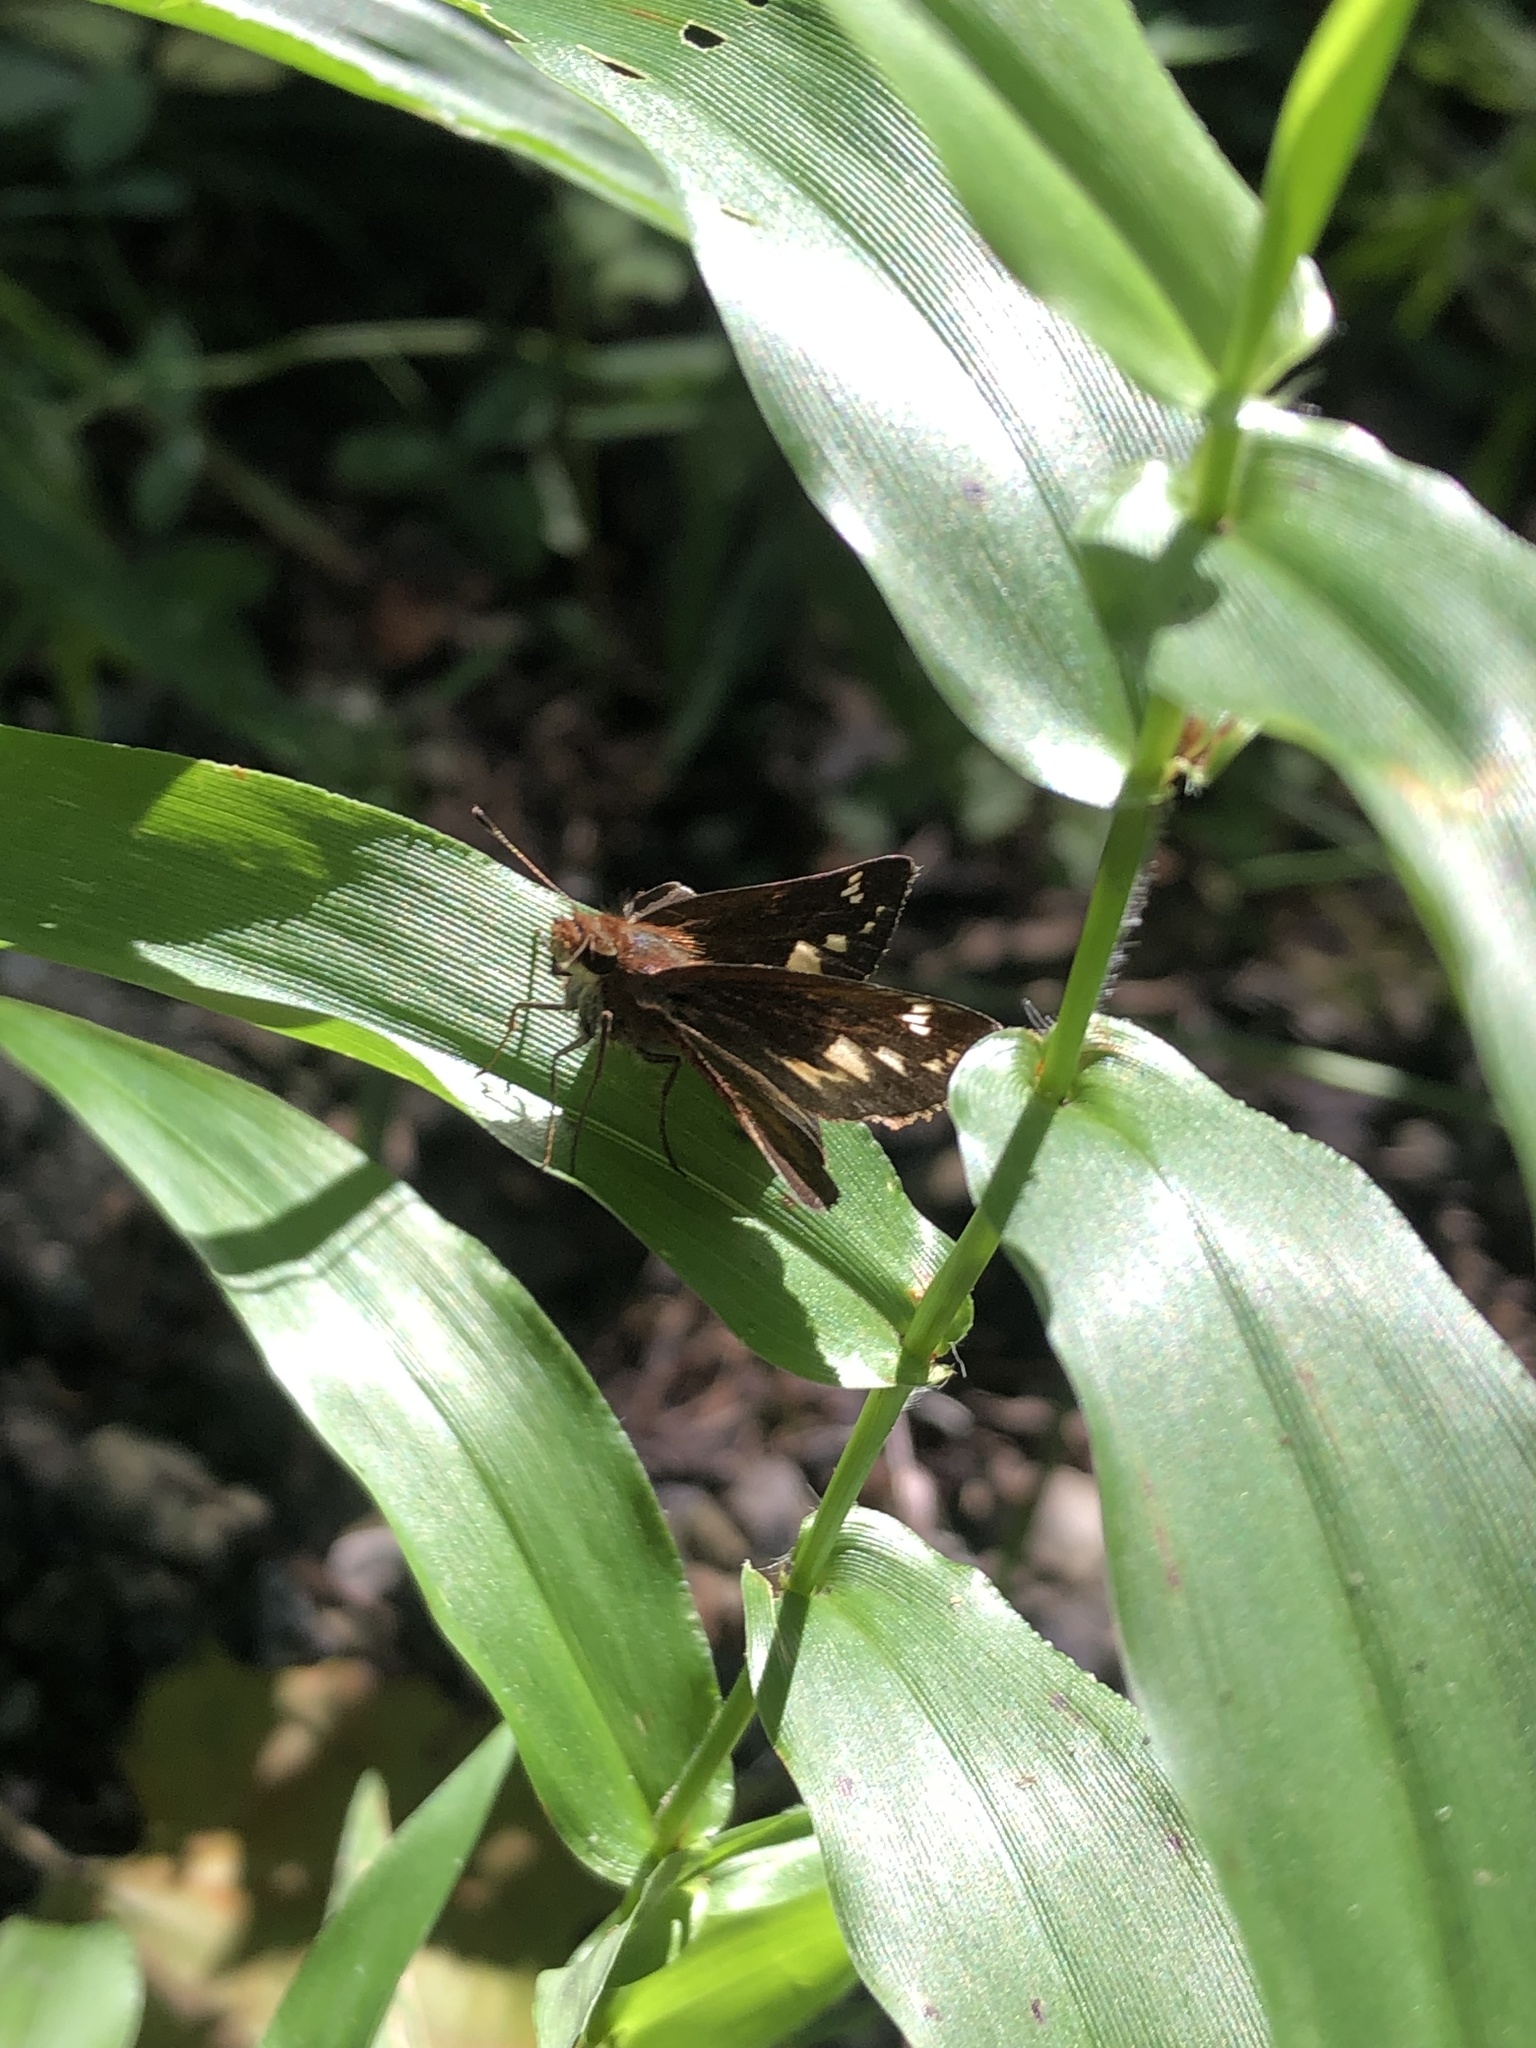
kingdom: Animalia
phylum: Arthropoda
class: Insecta
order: Lepidoptera
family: Hesperiidae
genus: Lon
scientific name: Lon zabulon
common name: Zabulon skipper
